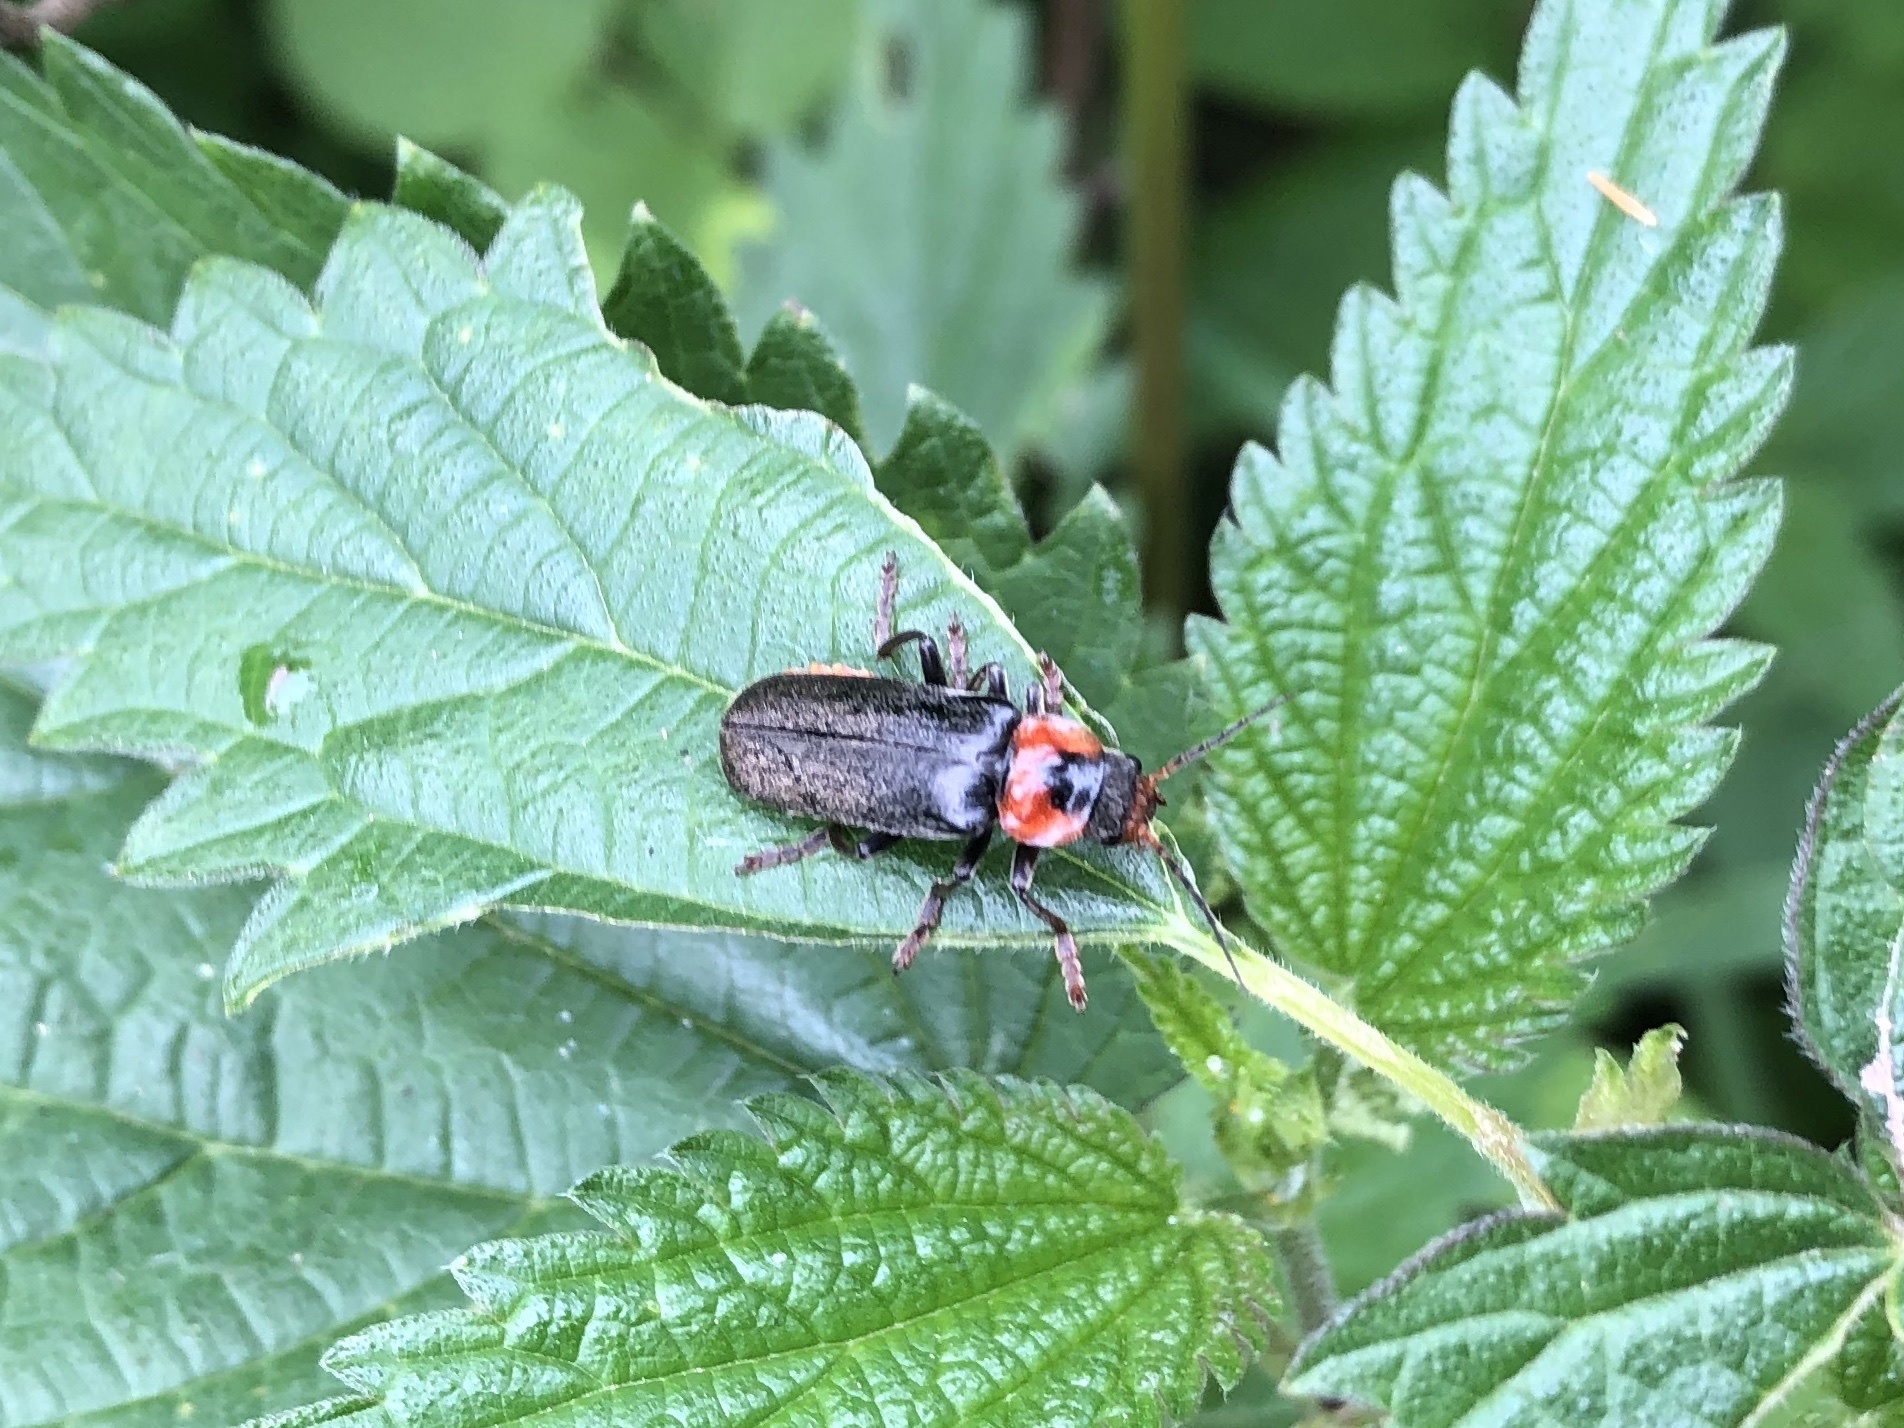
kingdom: Animalia
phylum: Arthropoda
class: Insecta
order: Coleoptera
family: Cantharidae
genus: Cantharis
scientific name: Cantharis fusca
